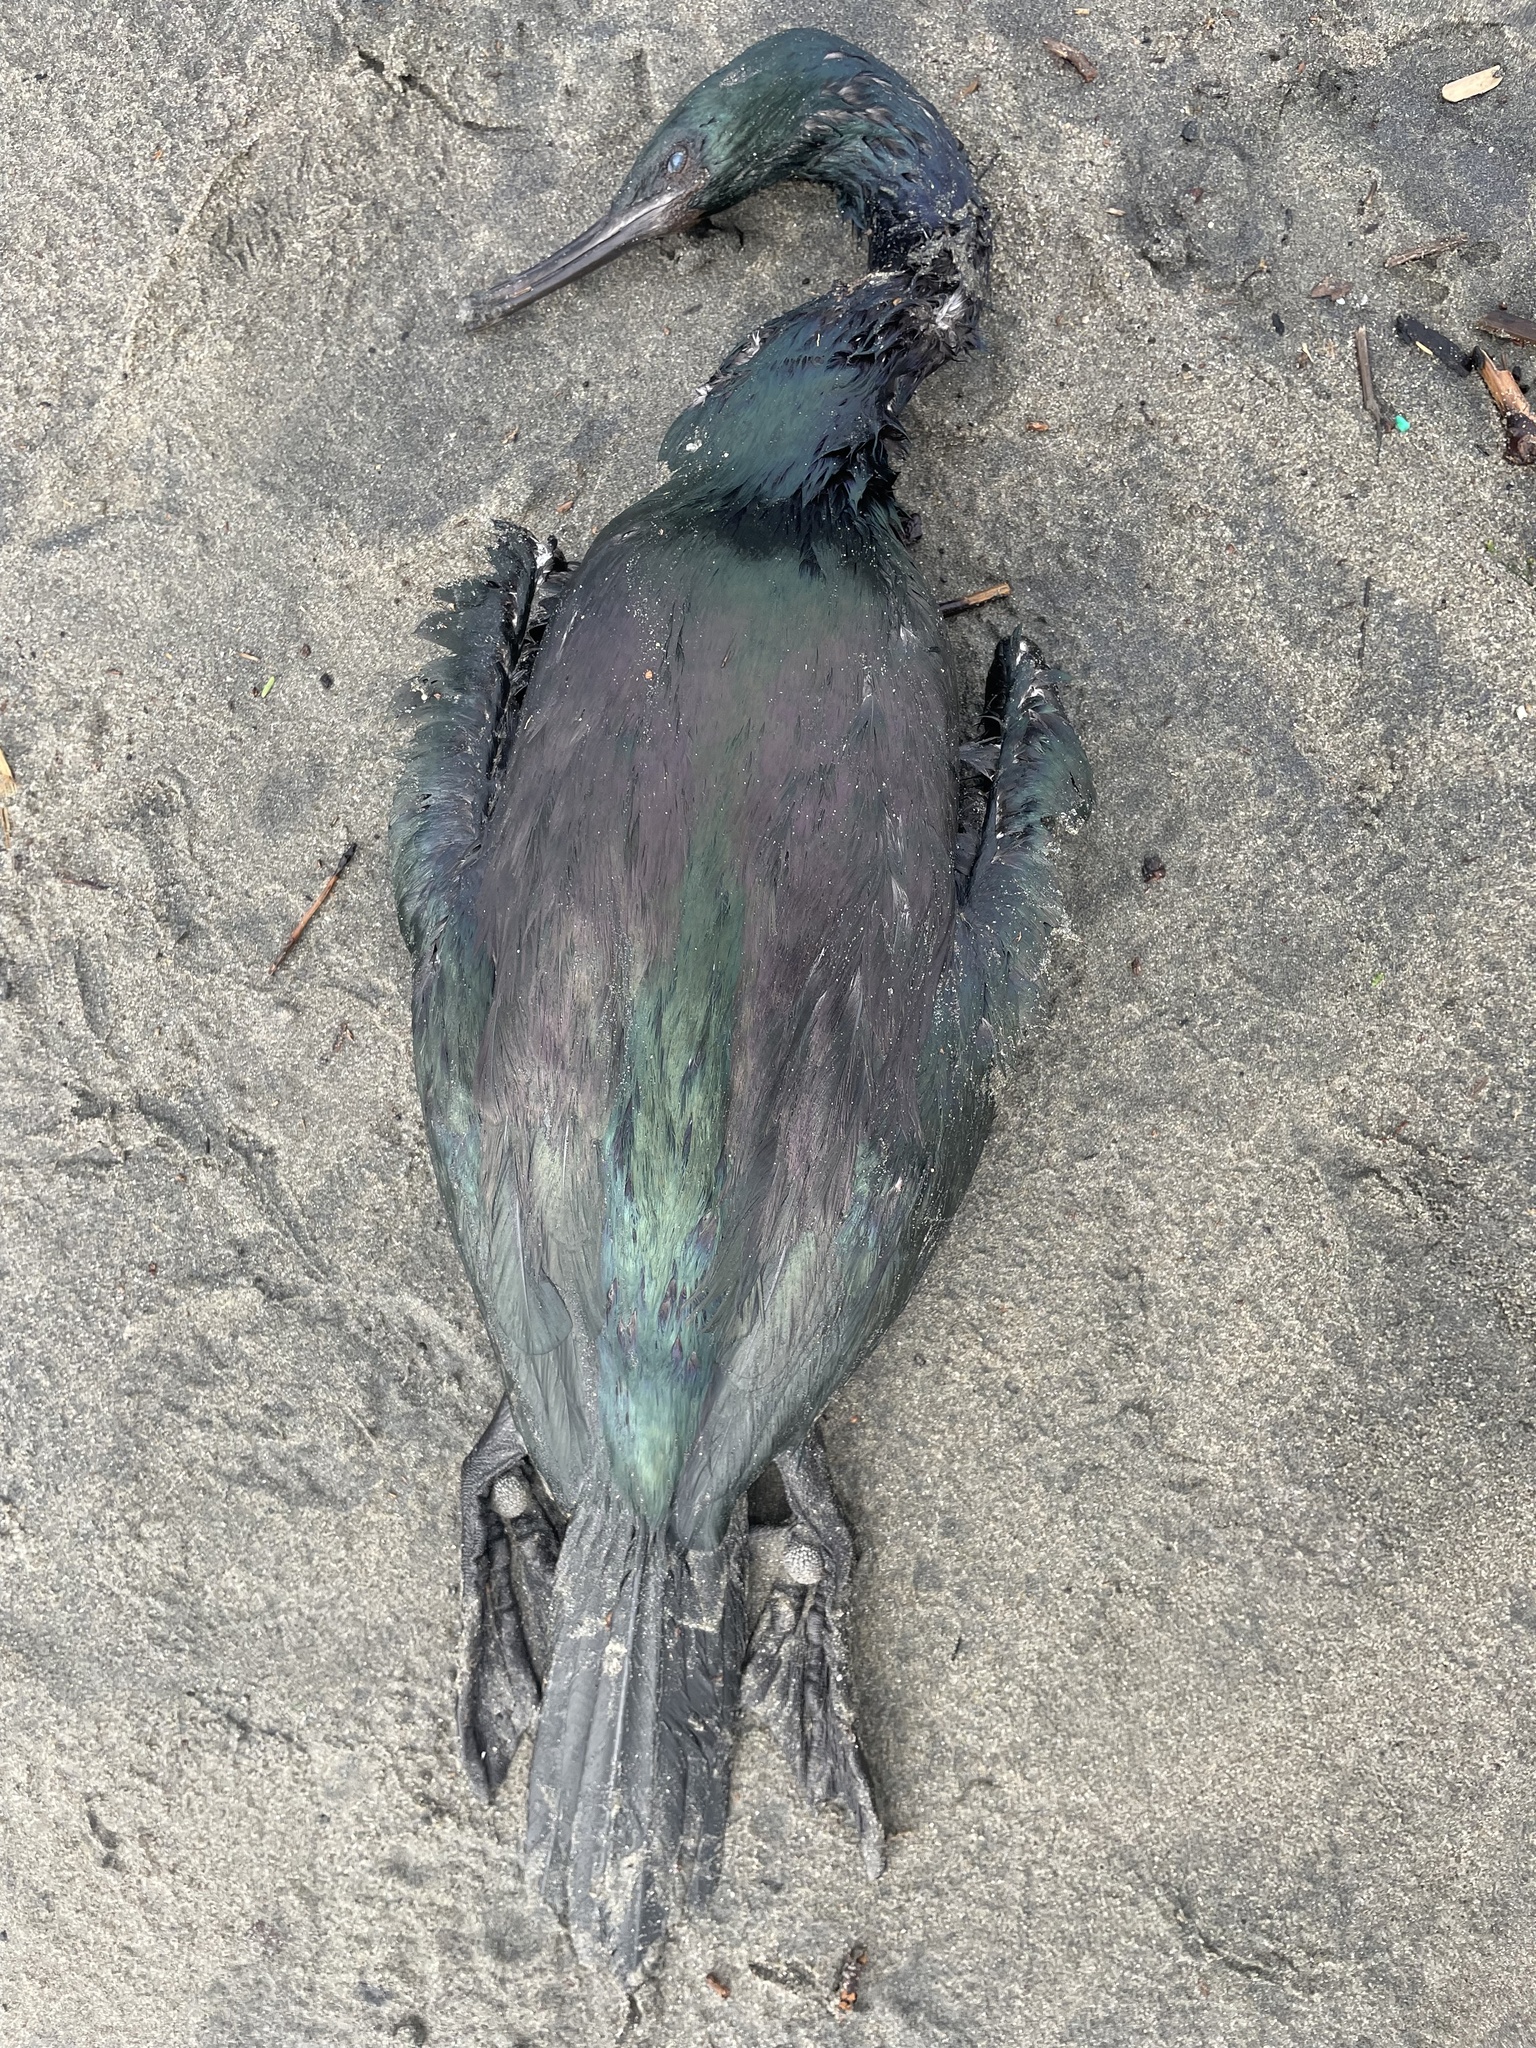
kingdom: Animalia
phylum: Chordata
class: Aves
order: Suliformes
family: Phalacrocoracidae
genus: Phalacrocorax
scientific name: Phalacrocorax pelagicus
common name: Pelagic cormorant
